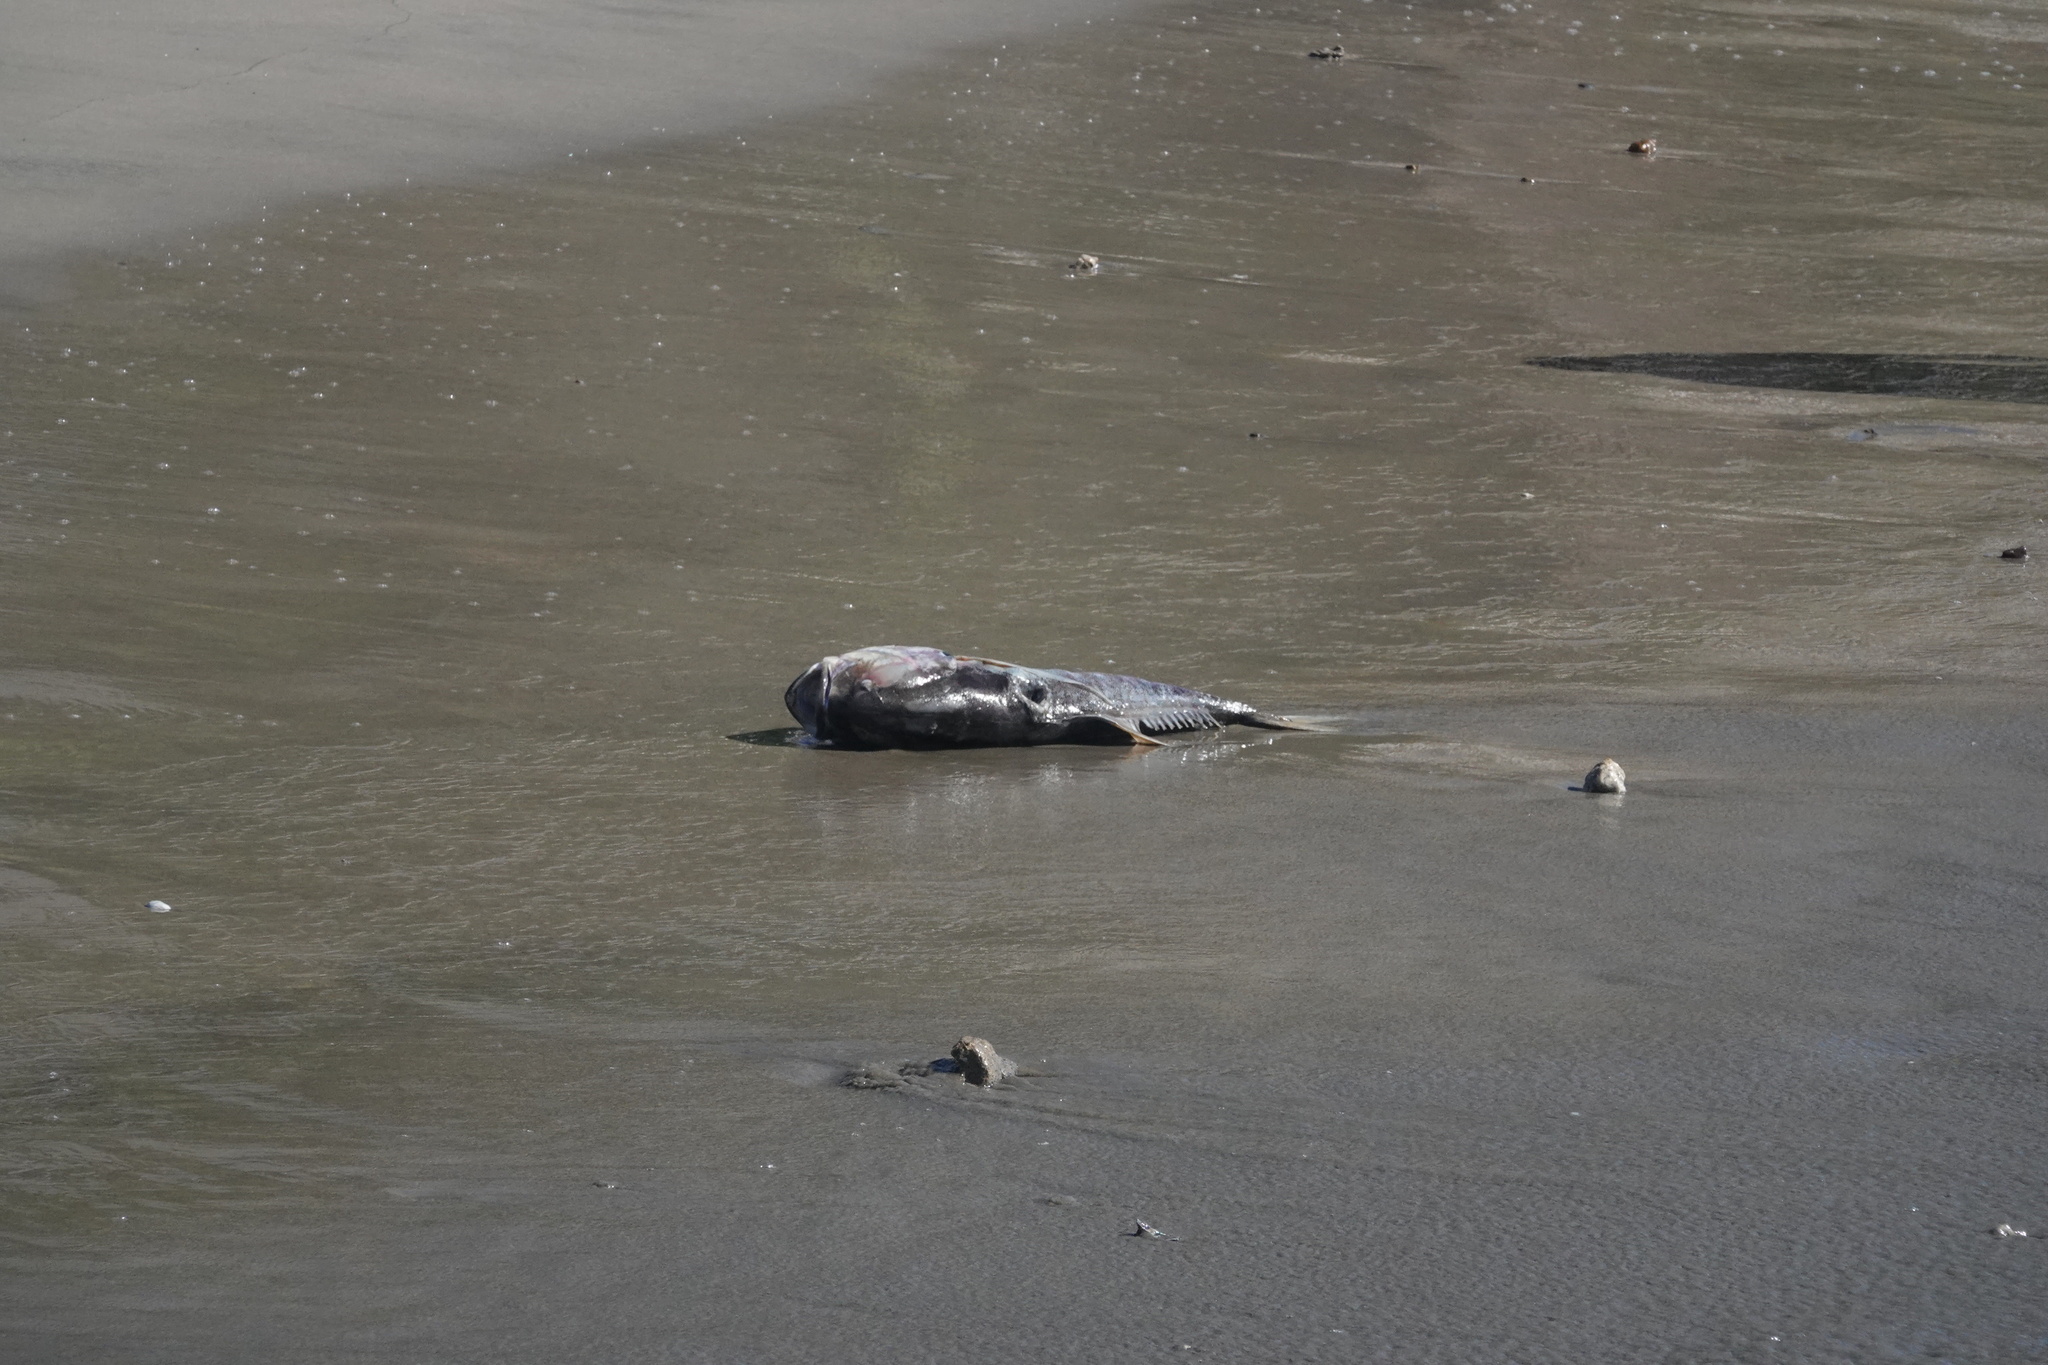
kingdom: Animalia
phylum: Chordata
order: Perciformes
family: Carangidae
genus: Caranx
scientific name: Caranx caninus
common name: Pacific crevalle jack
